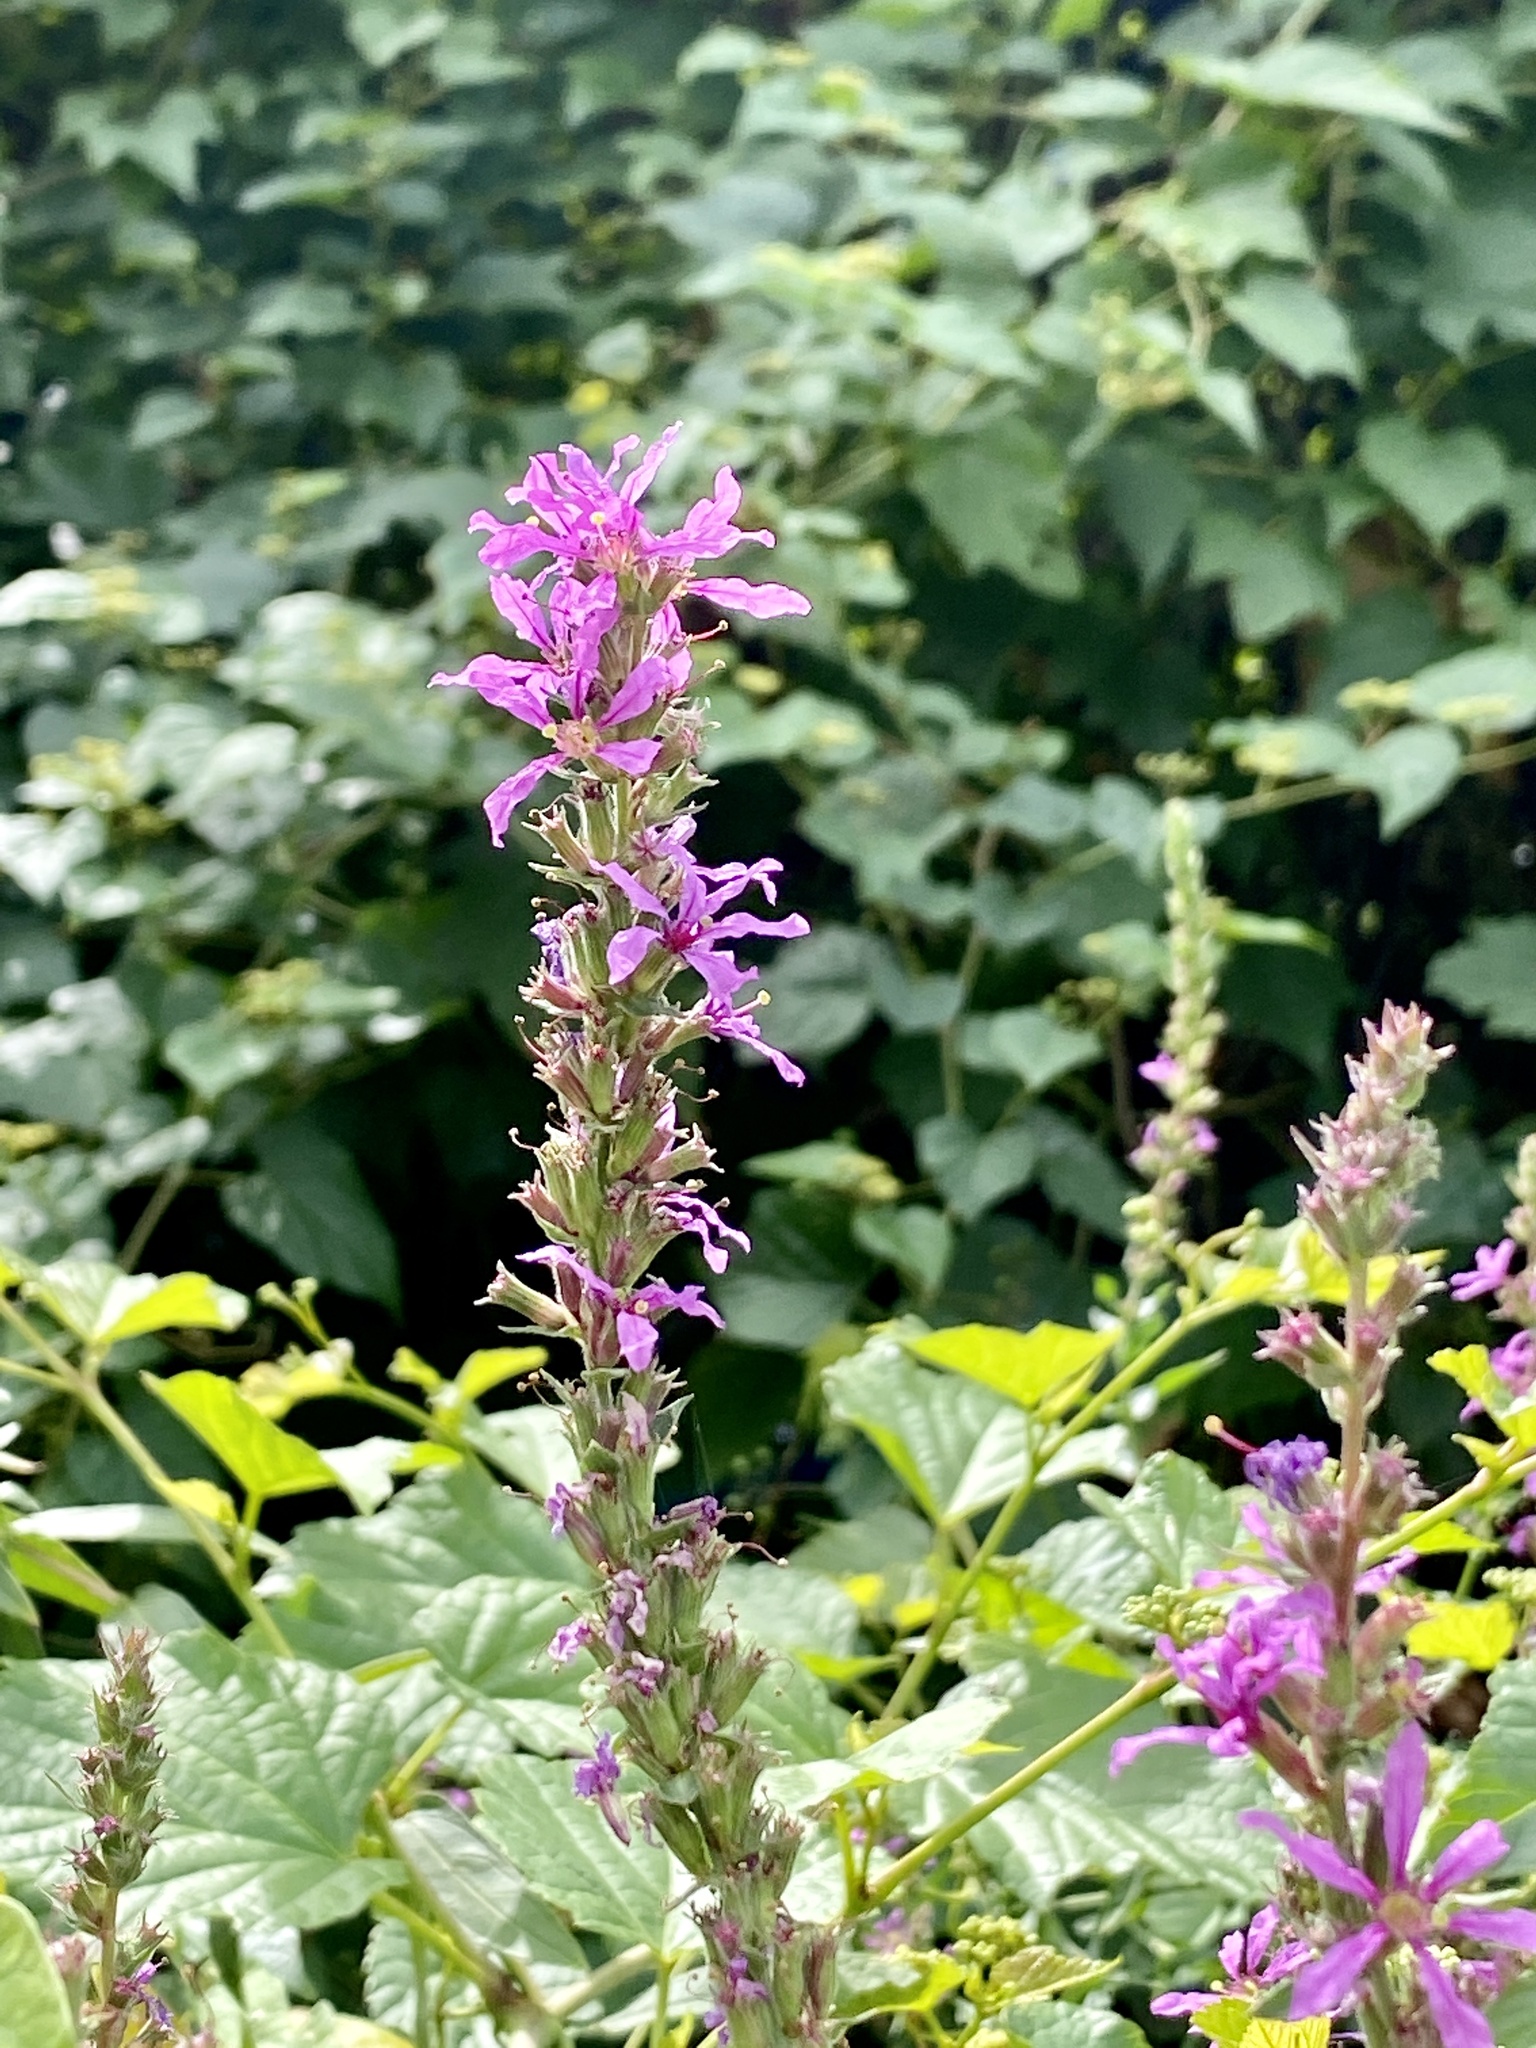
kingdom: Plantae
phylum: Tracheophyta
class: Magnoliopsida
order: Myrtales
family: Lythraceae
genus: Lythrum
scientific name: Lythrum salicaria
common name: Purple loosestrife
